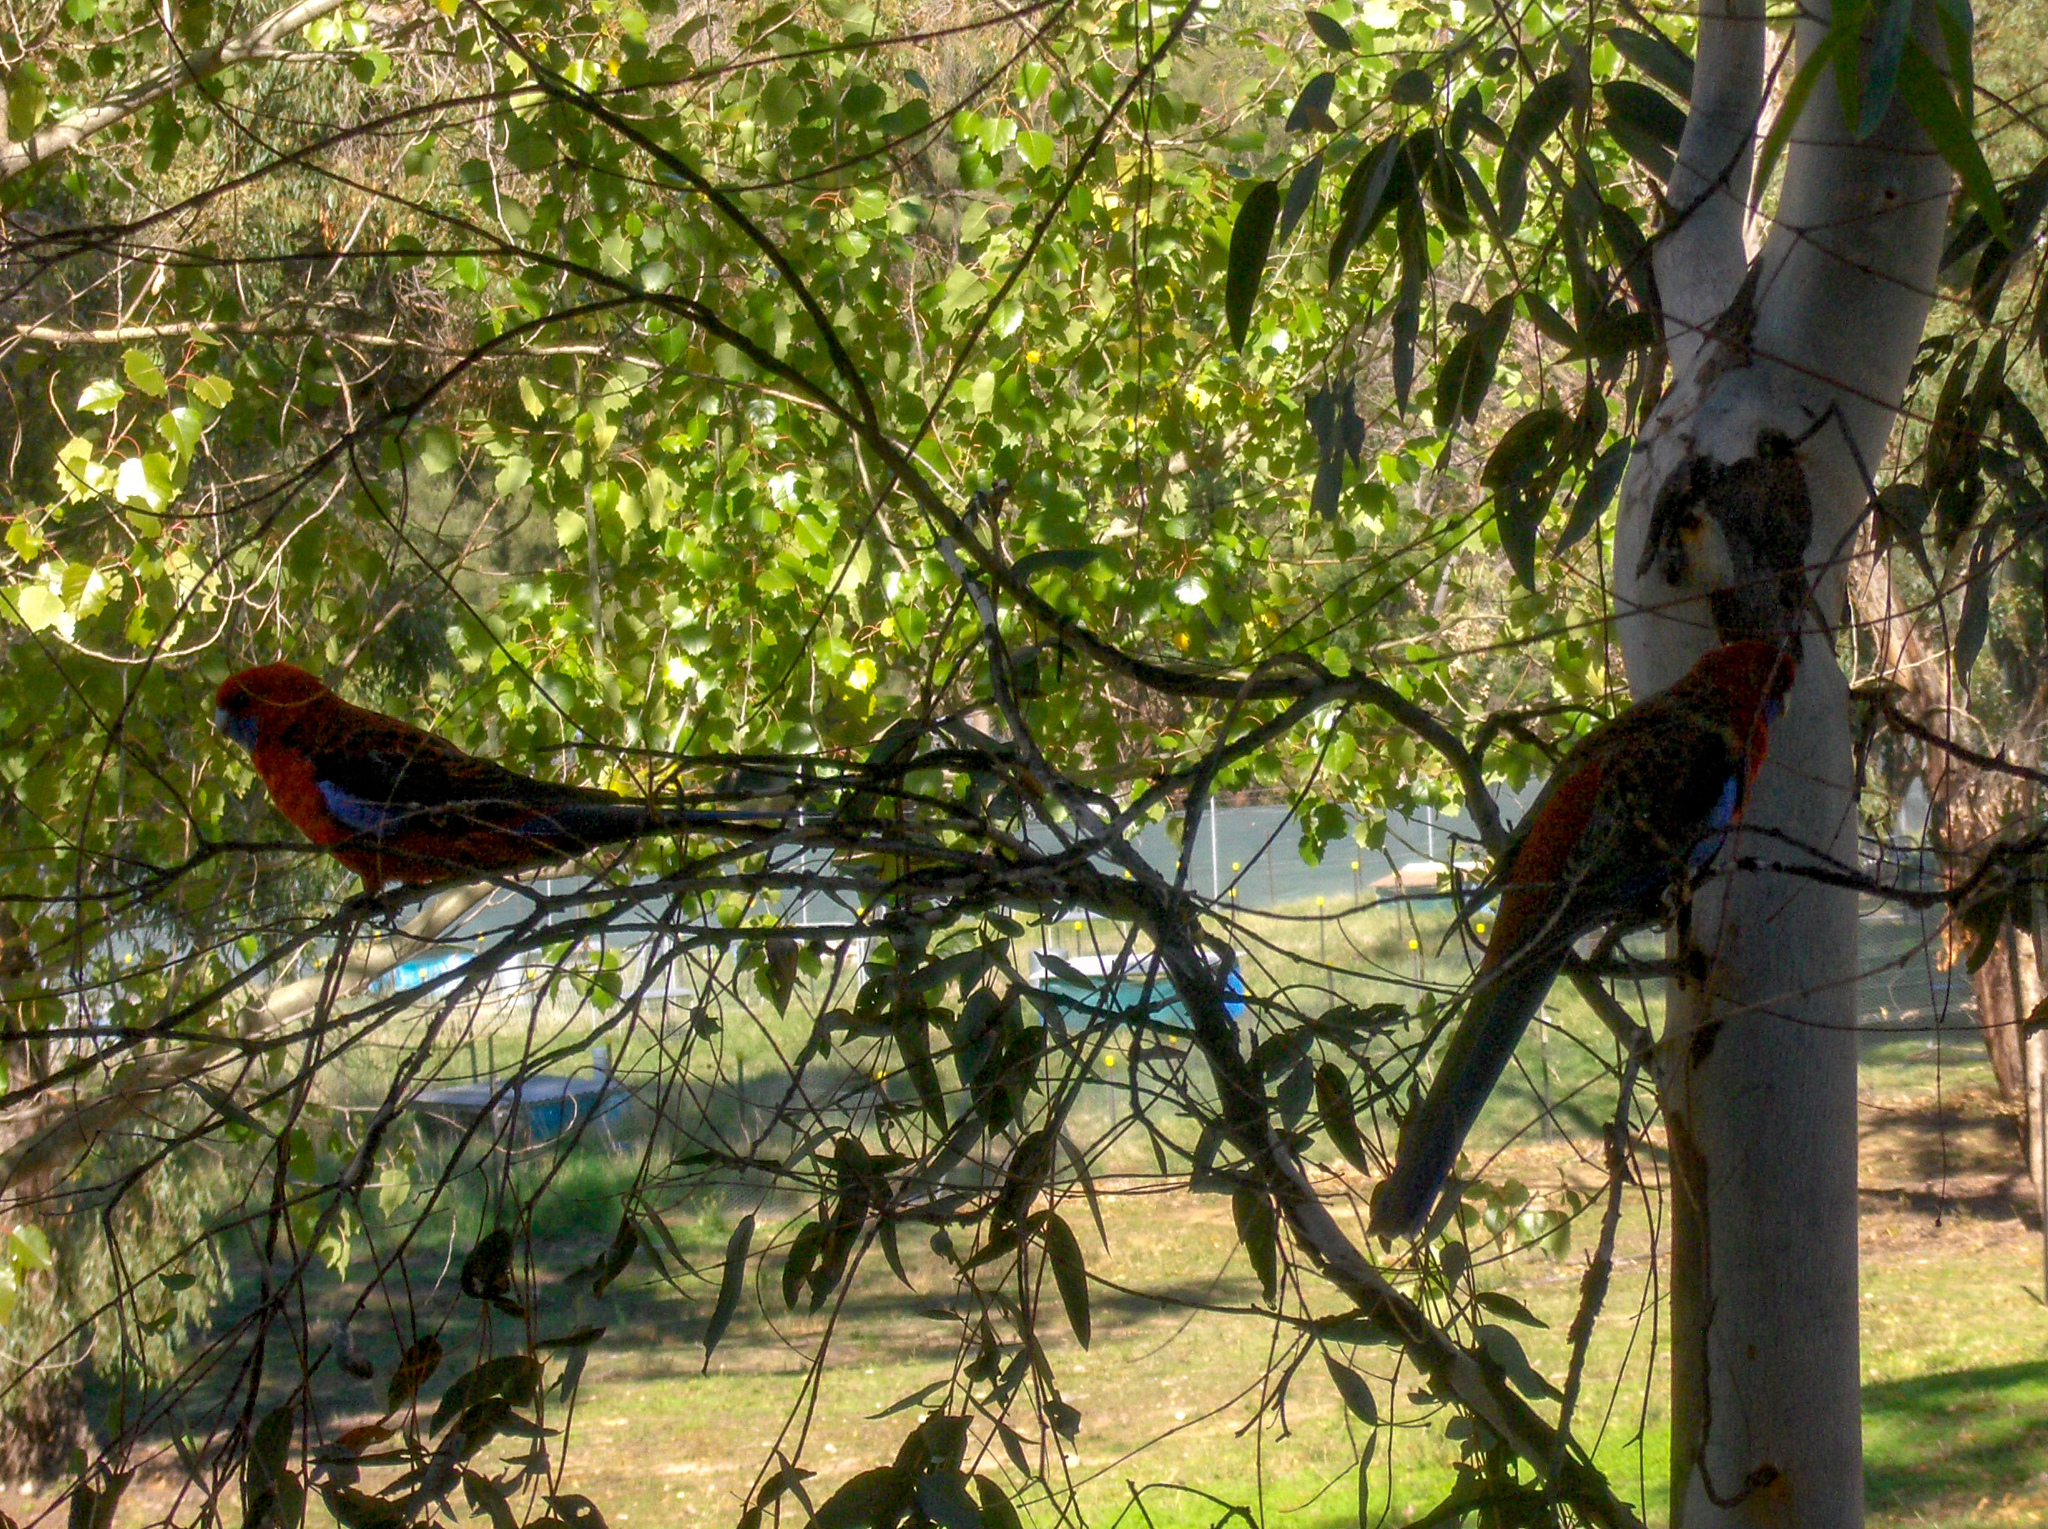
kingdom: Animalia
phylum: Chordata
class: Aves
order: Psittaciformes
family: Psittacidae
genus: Platycercus
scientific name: Platycercus elegans
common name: Crimson rosella
